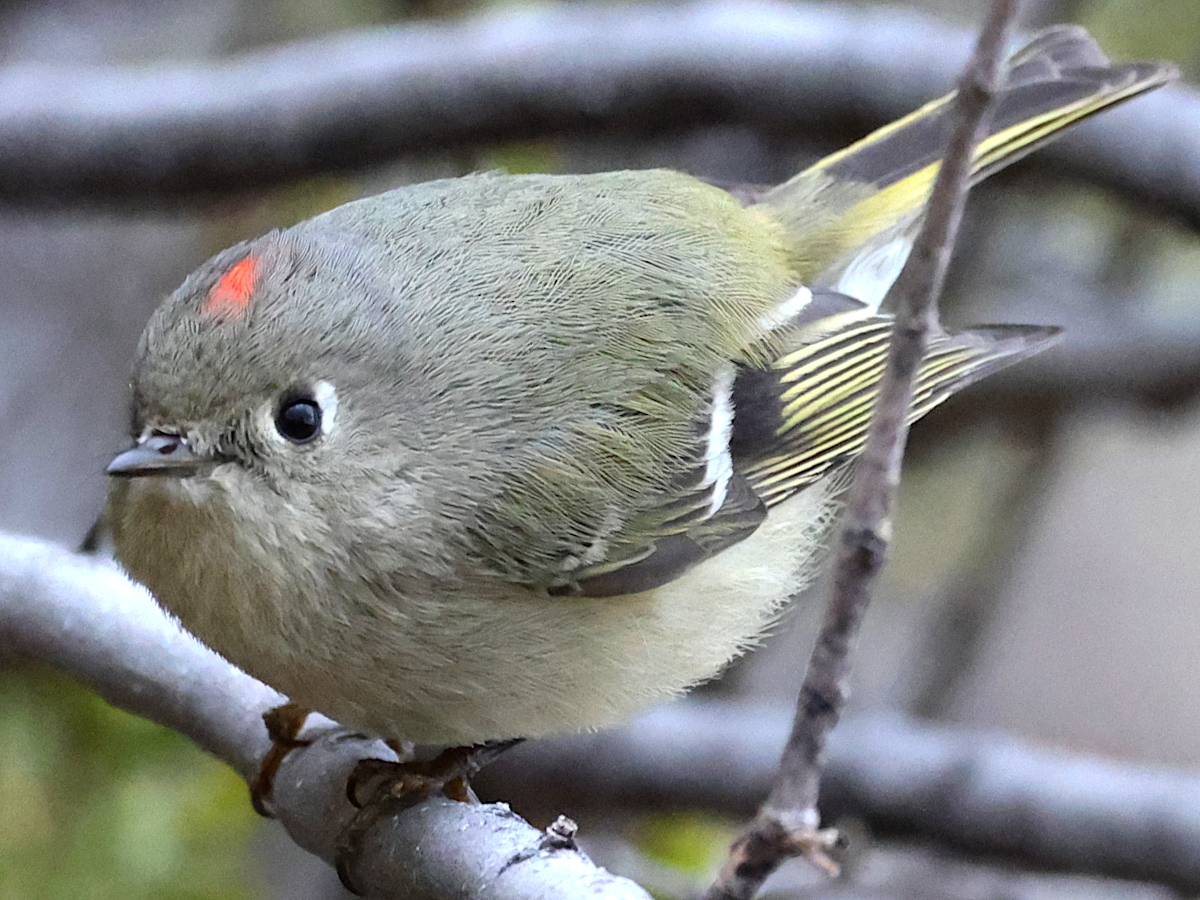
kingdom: Animalia
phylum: Chordata
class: Aves
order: Passeriformes
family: Regulidae
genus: Regulus
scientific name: Regulus calendula
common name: Ruby-crowned kinglet
